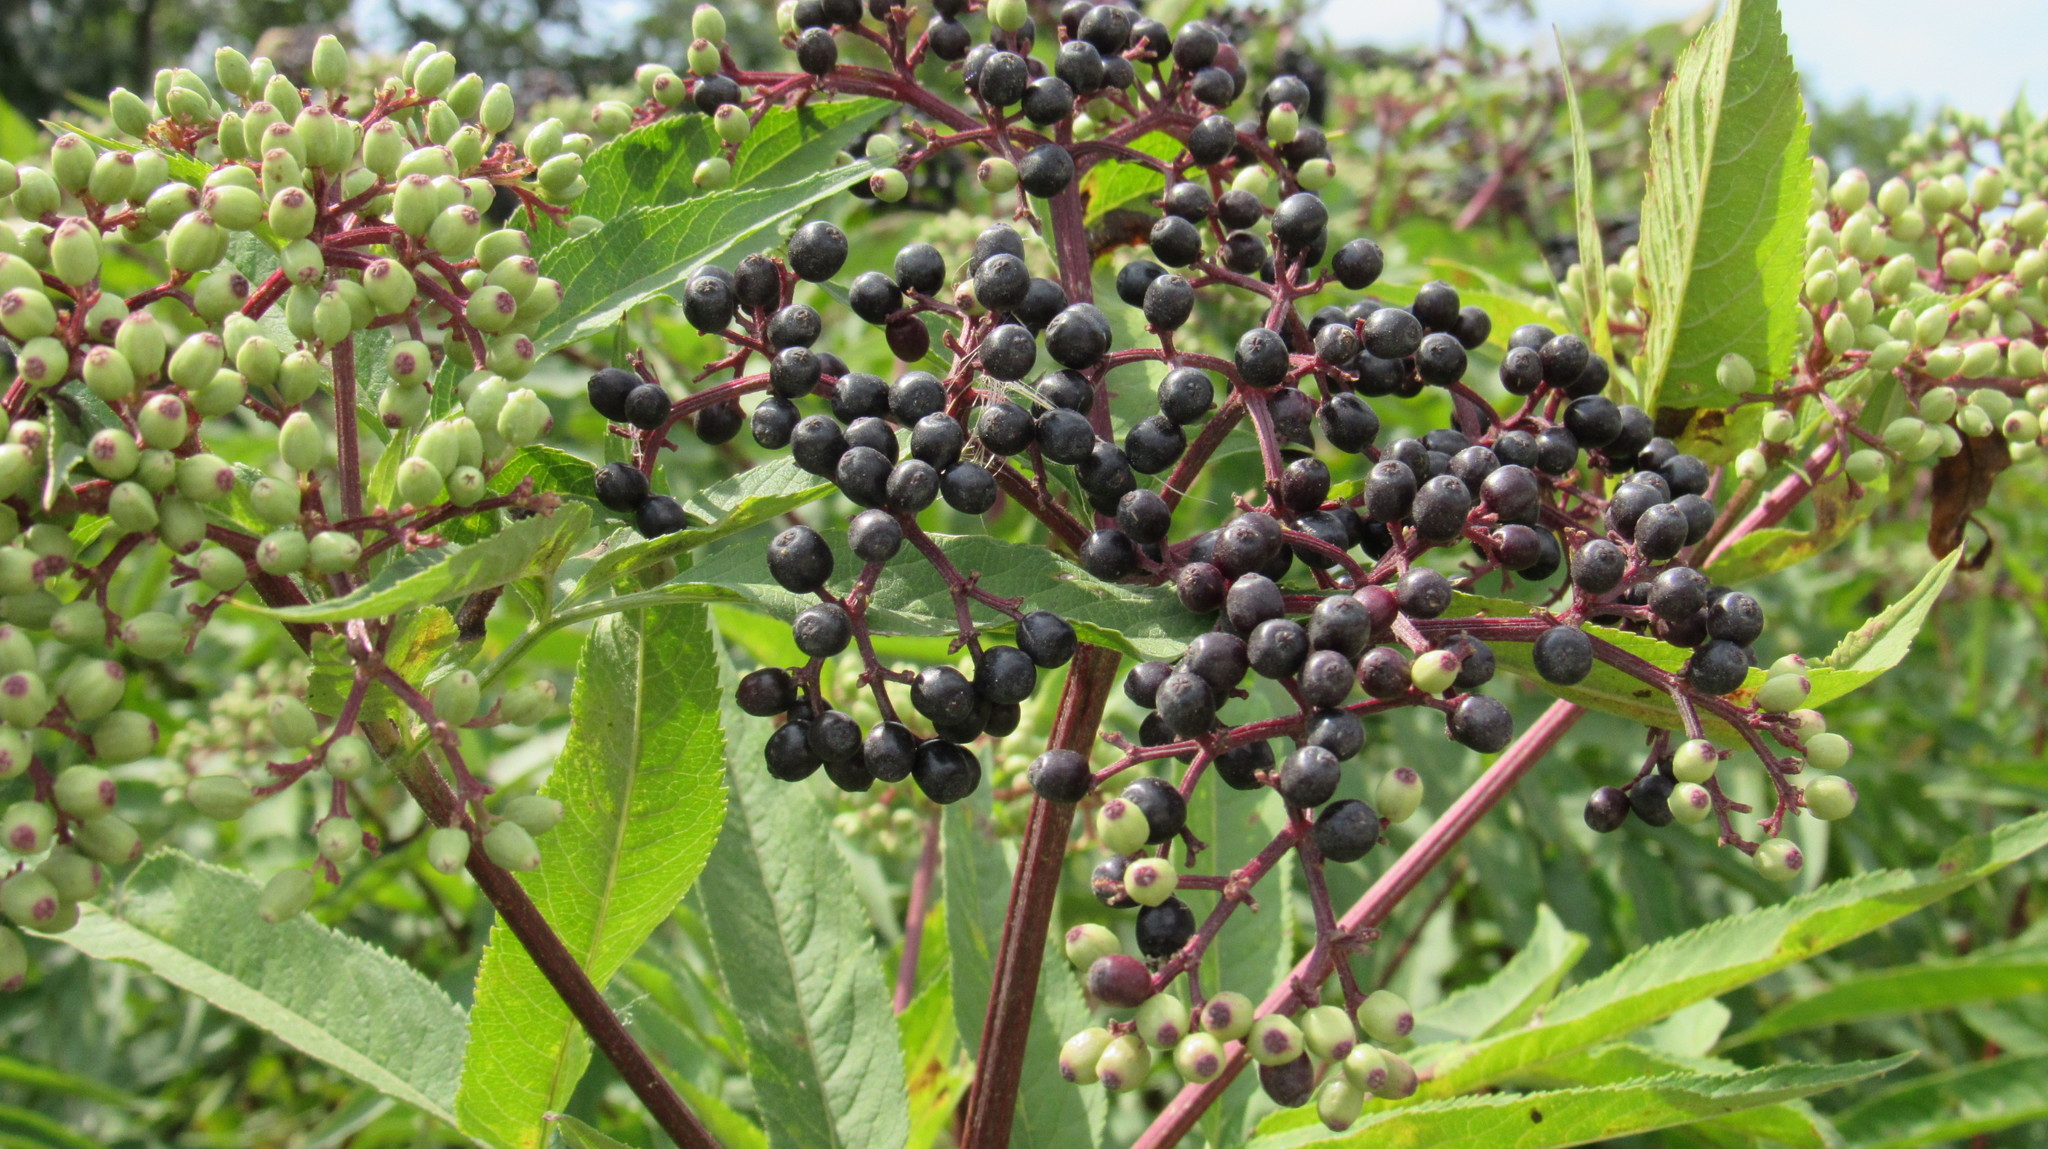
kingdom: Plantae
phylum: Tracheophyta
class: Magnoliopsida
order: Dipsacales
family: Viburnaceae
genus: Sambucus
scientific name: Sambucus ebulus
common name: Dwarf elder
